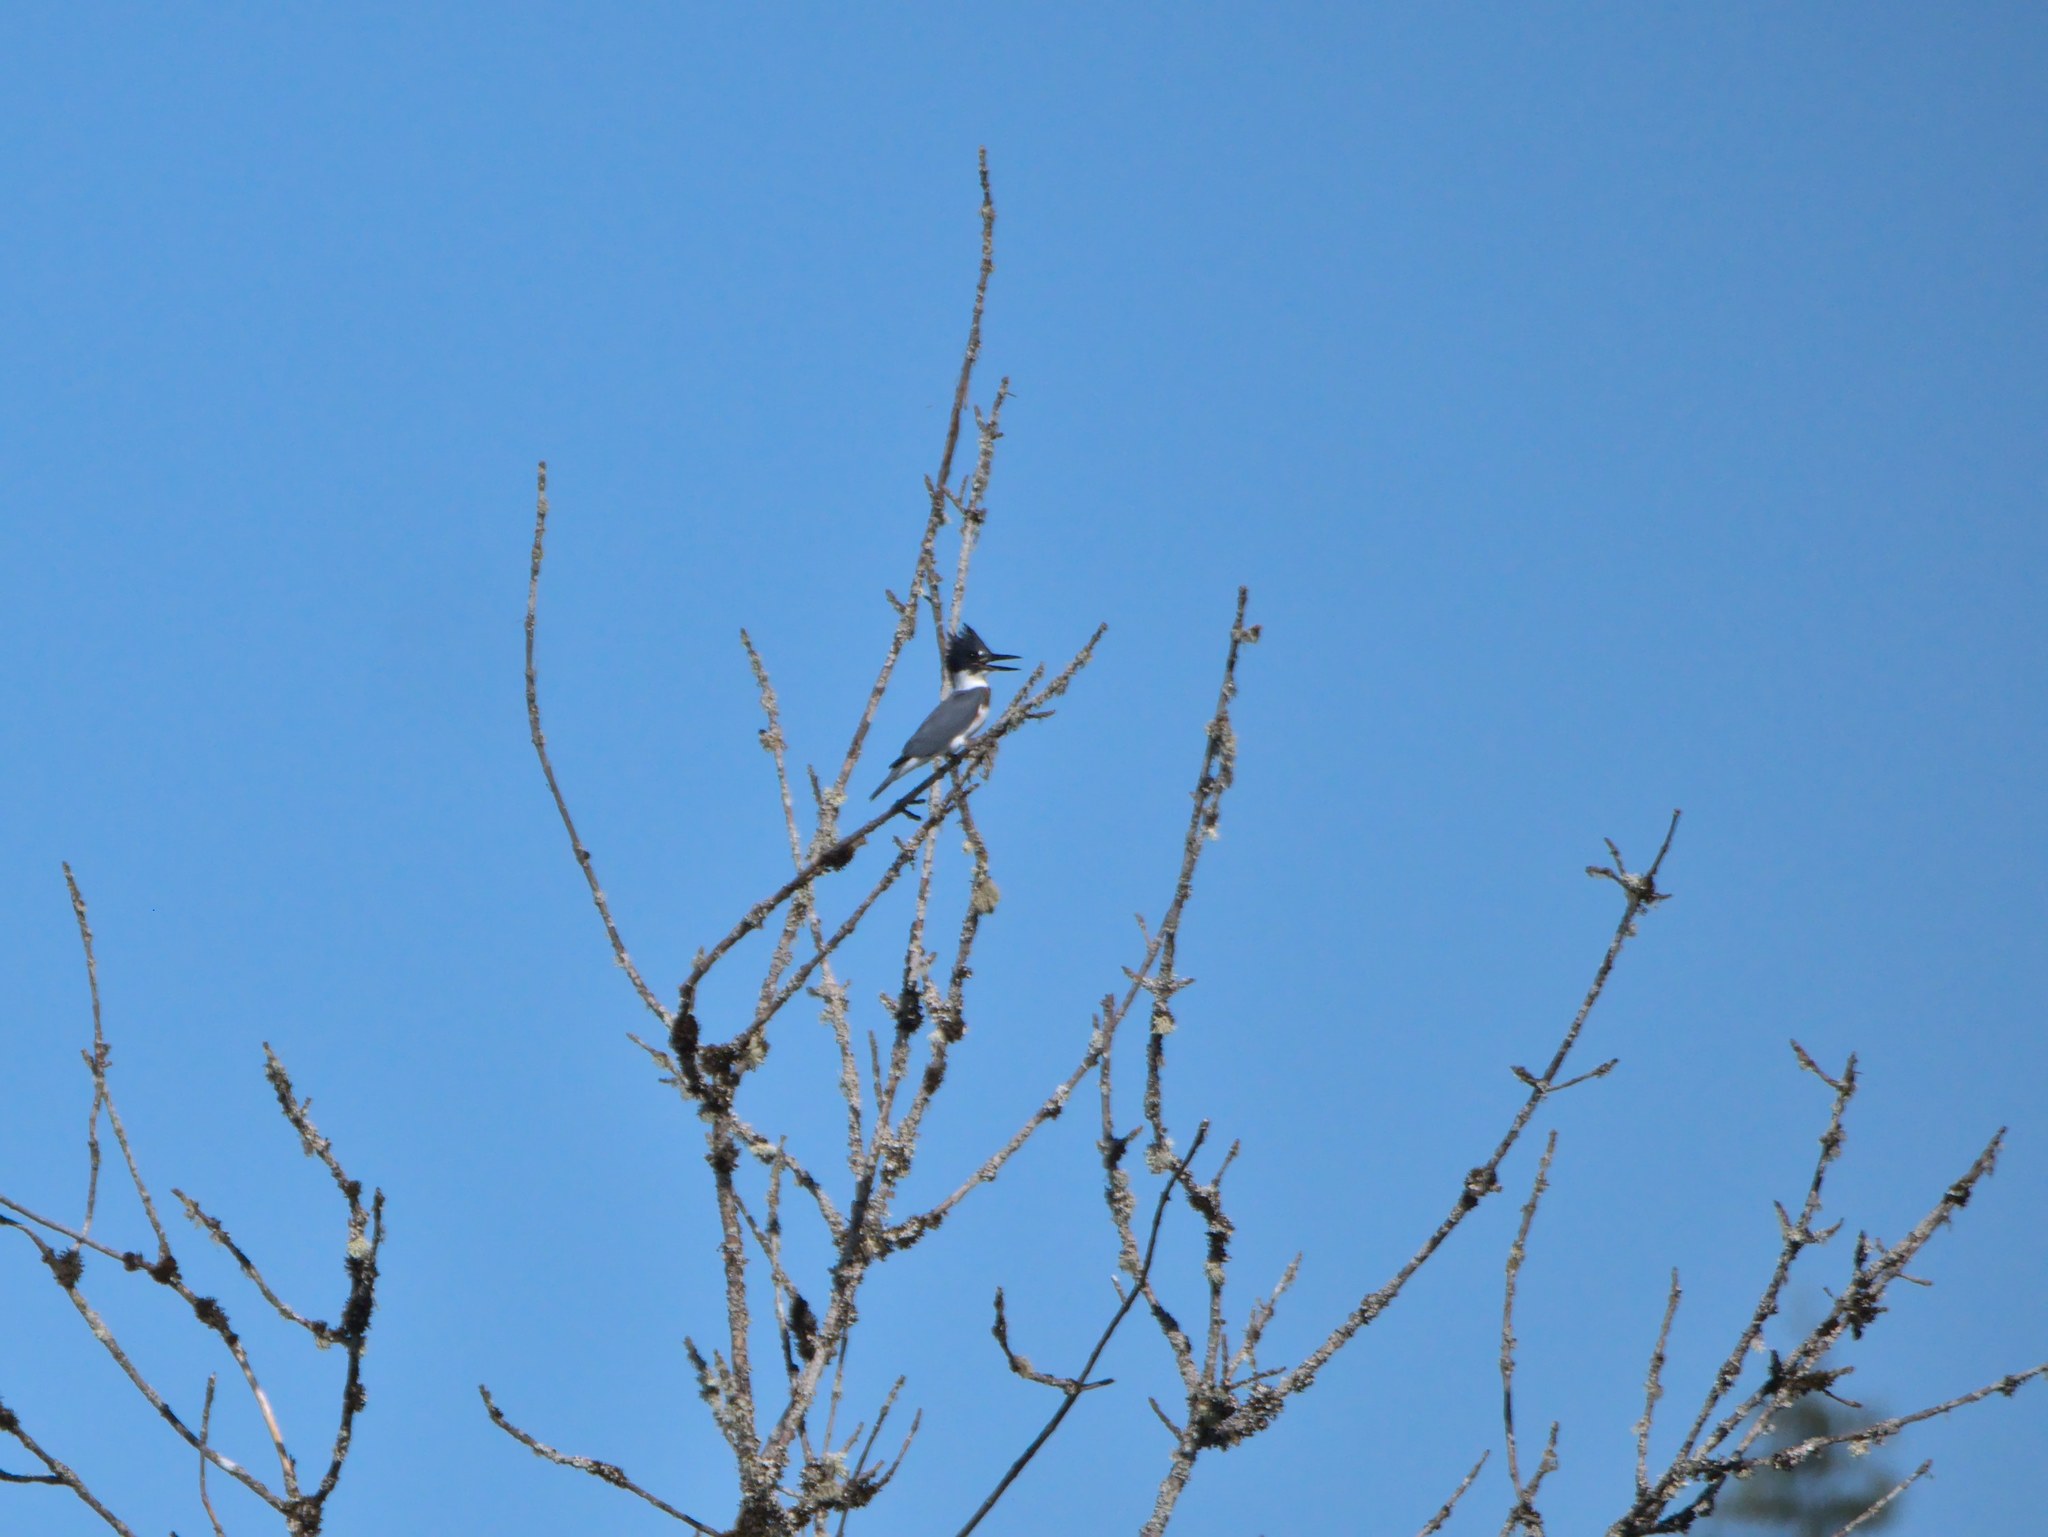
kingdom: Animalia
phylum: Chordata
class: Aves
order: Coraciiformes
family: Alcedinidae
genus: Megaceryle
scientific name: Megaceryle alcyon
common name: Belted kingfisher
